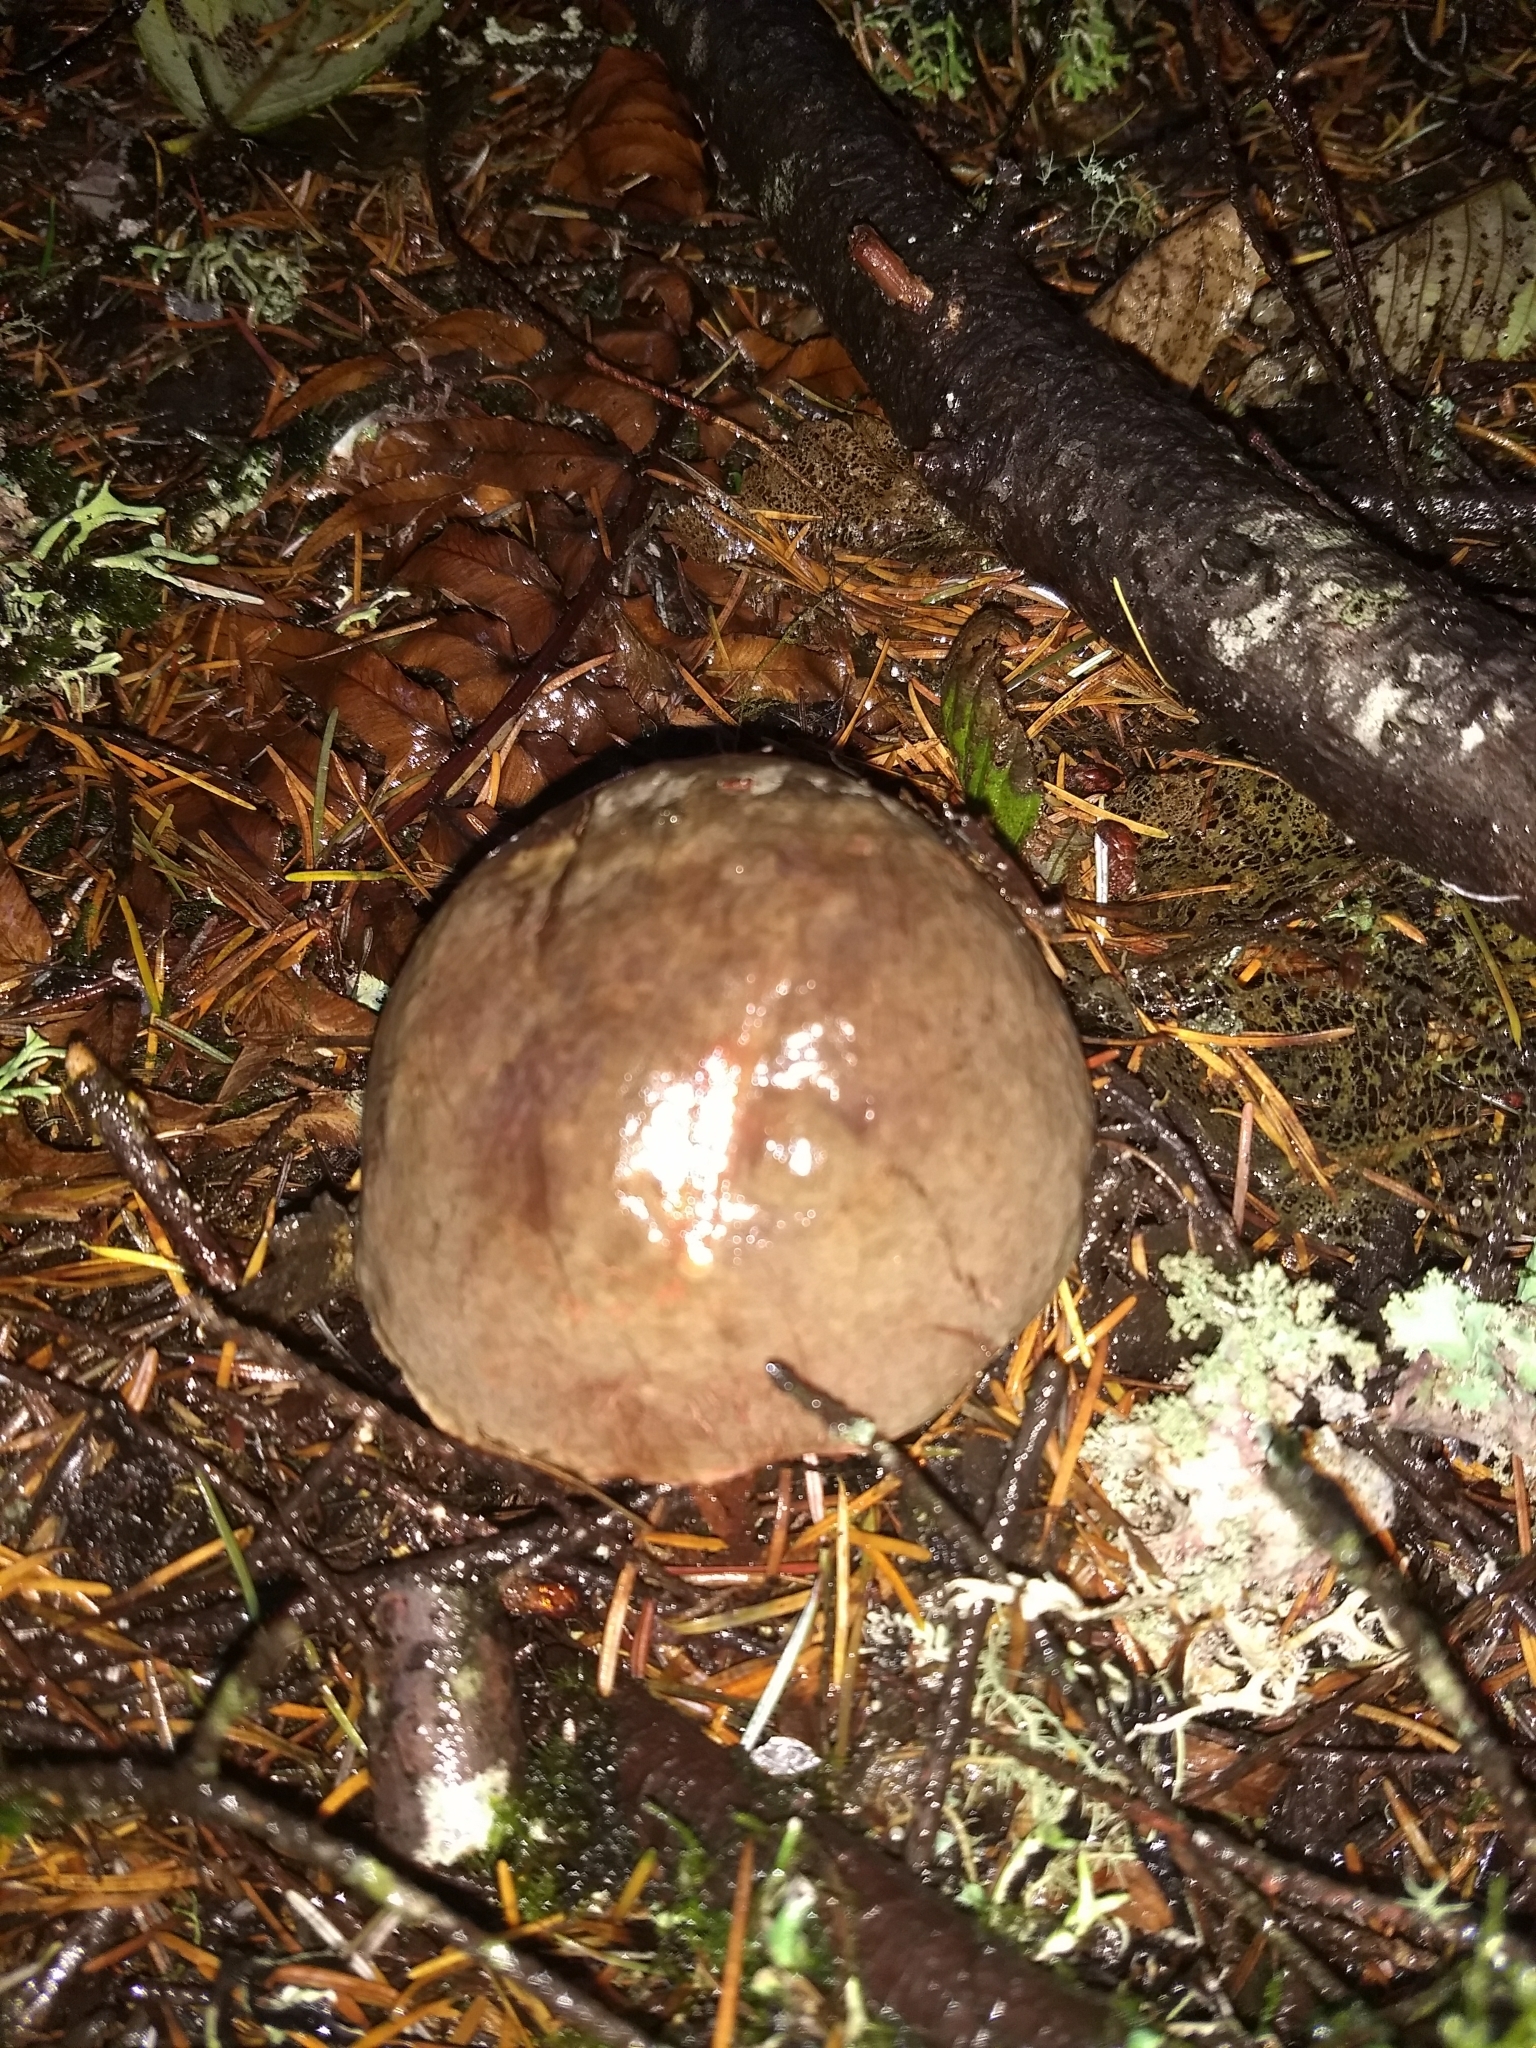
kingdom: Fungi
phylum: Basidiomycota
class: Agaricomycetes
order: Boletales
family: Boletaceae
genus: Xerocomellus
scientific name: Xerocomellus mendocinensis
